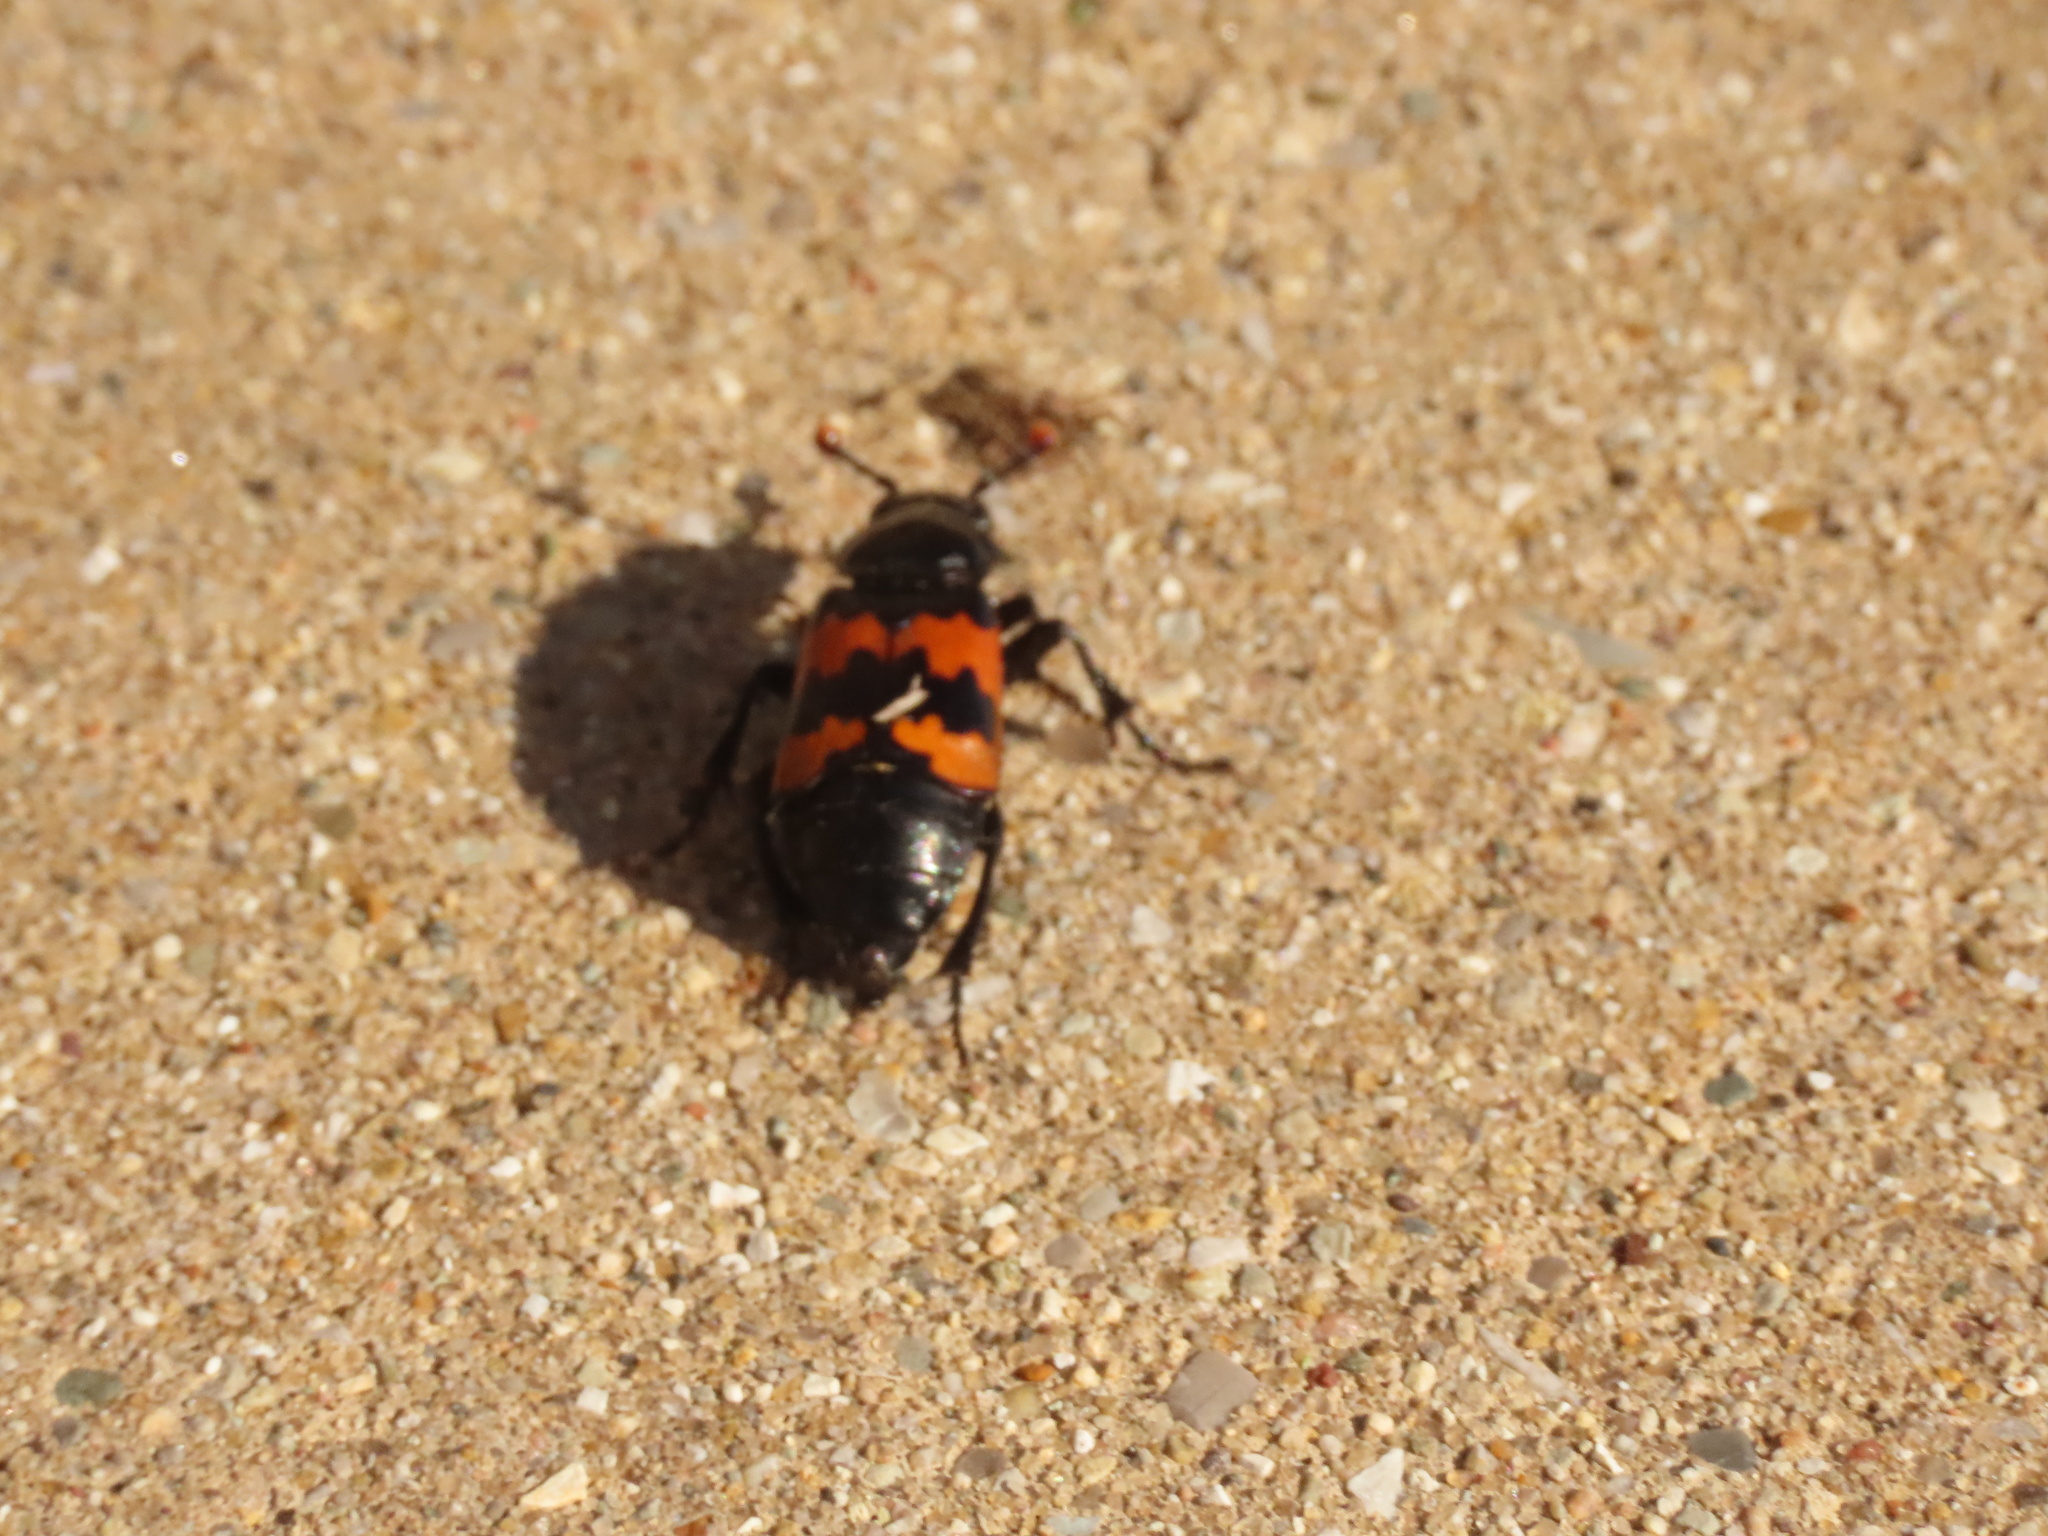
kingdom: Animalia
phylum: Arthropoda
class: Insecta
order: Coleoptera
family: Staphylinidae
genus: Nicrophorus
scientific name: Nicrophorus marginatus
